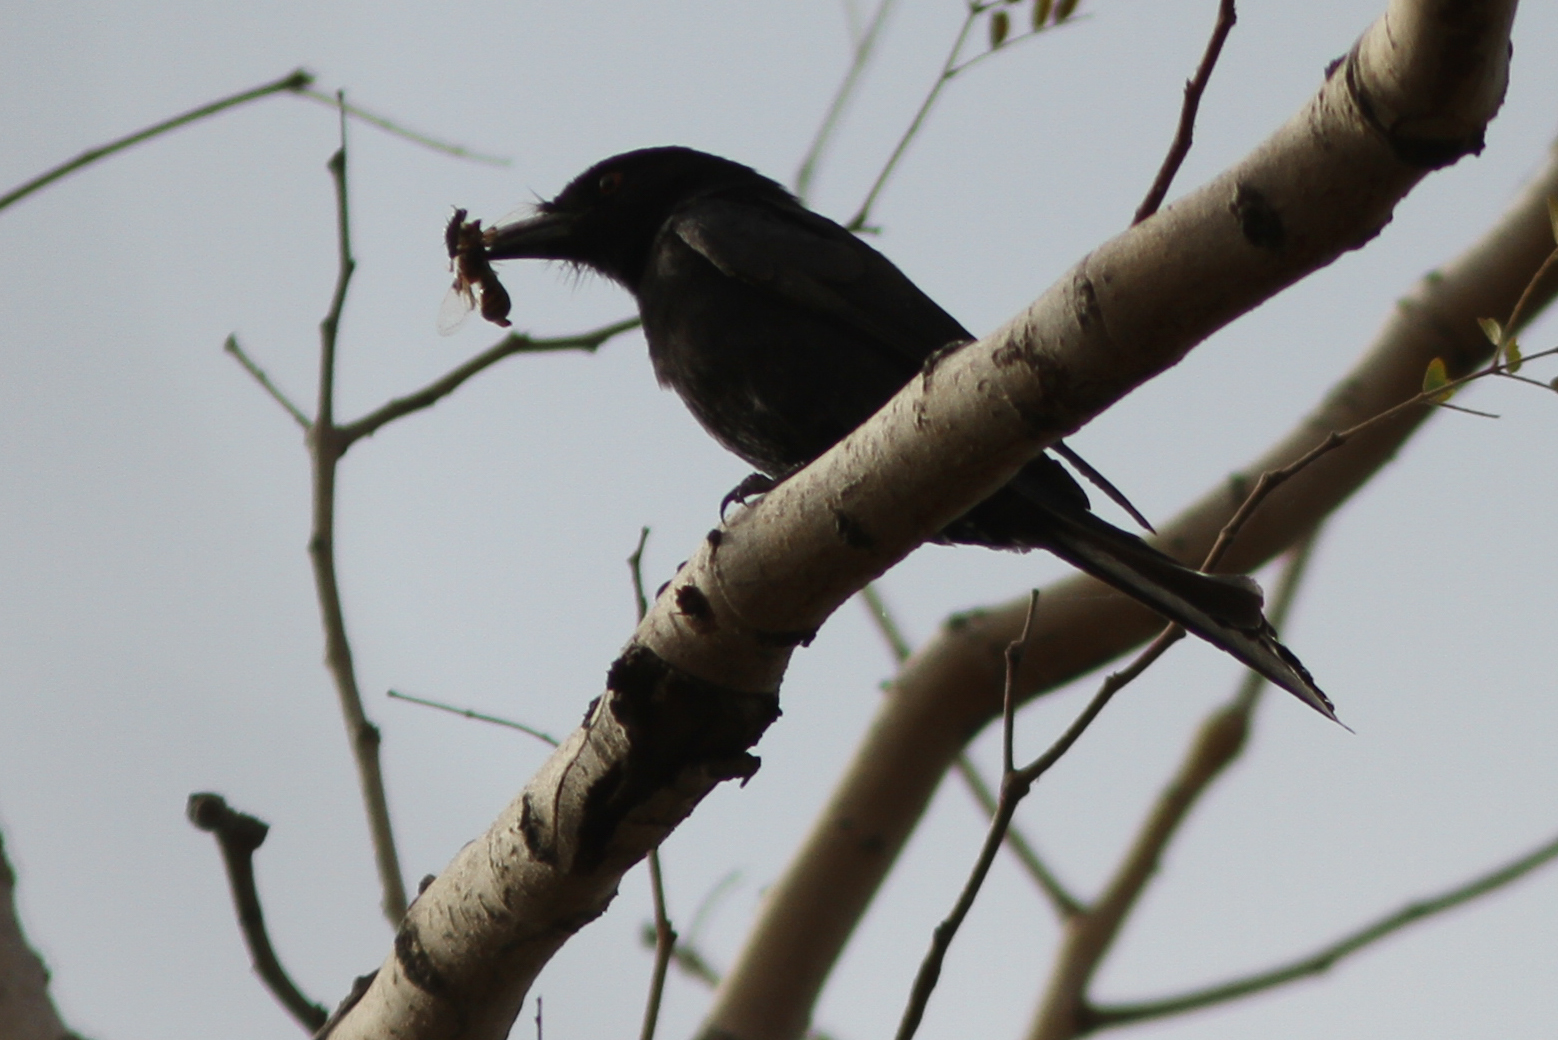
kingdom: Animalia
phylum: Chordata
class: Aves
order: Passeriformes
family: Dicruridae
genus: Dicrurus
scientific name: Dicrurus adsimilis
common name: Fork-tailed drongo
